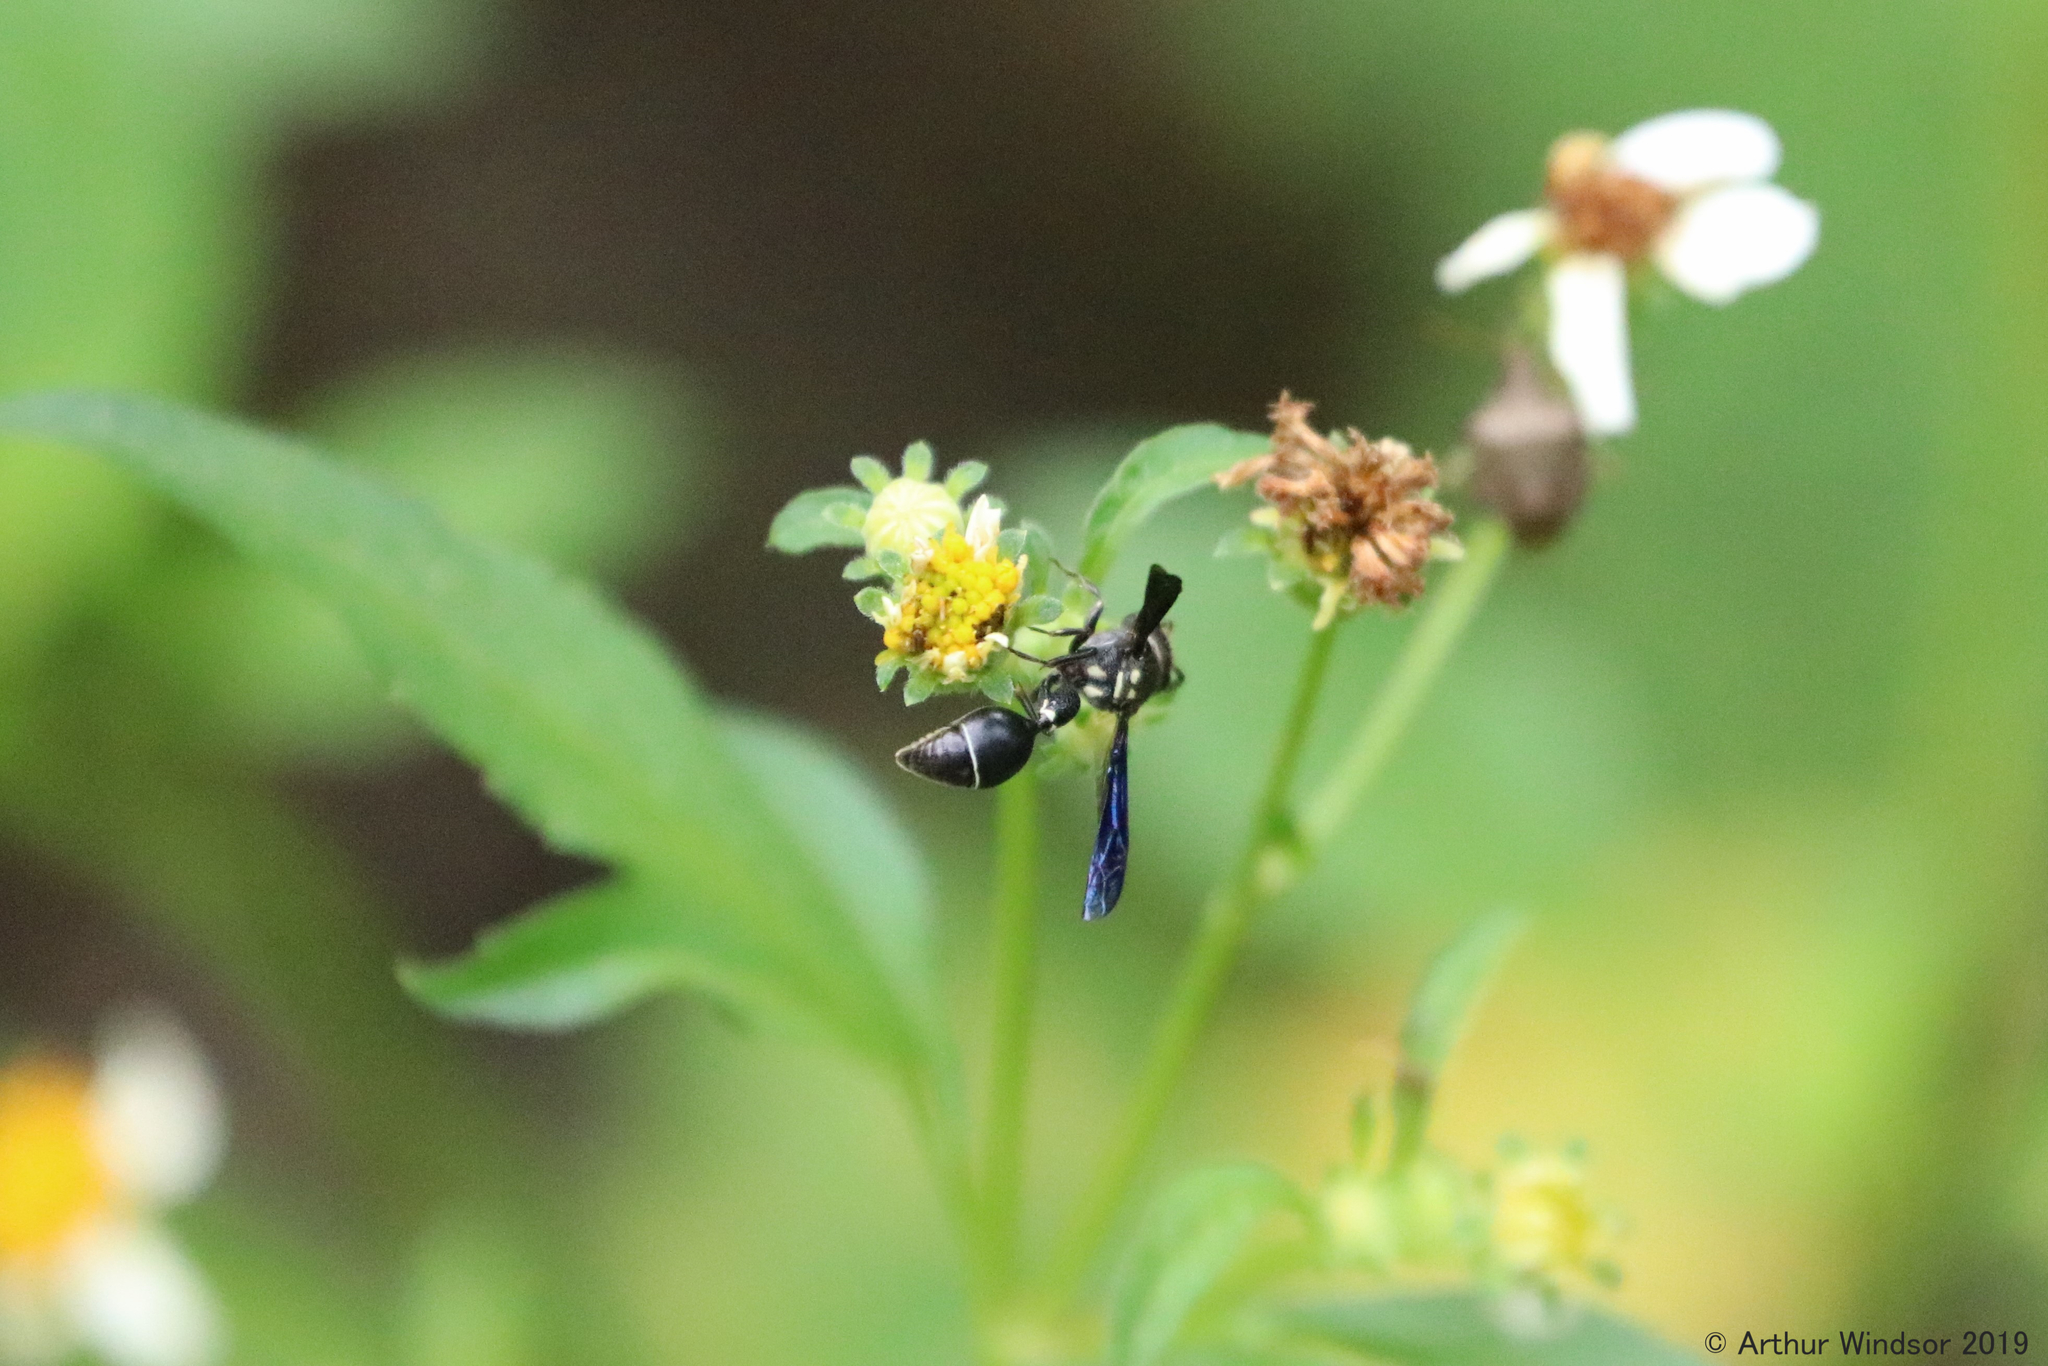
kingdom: Animalia
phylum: Arthropoda
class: Insecta
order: Hymenoptera
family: Eumenidae
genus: Zethus
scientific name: Zethus spinipes
